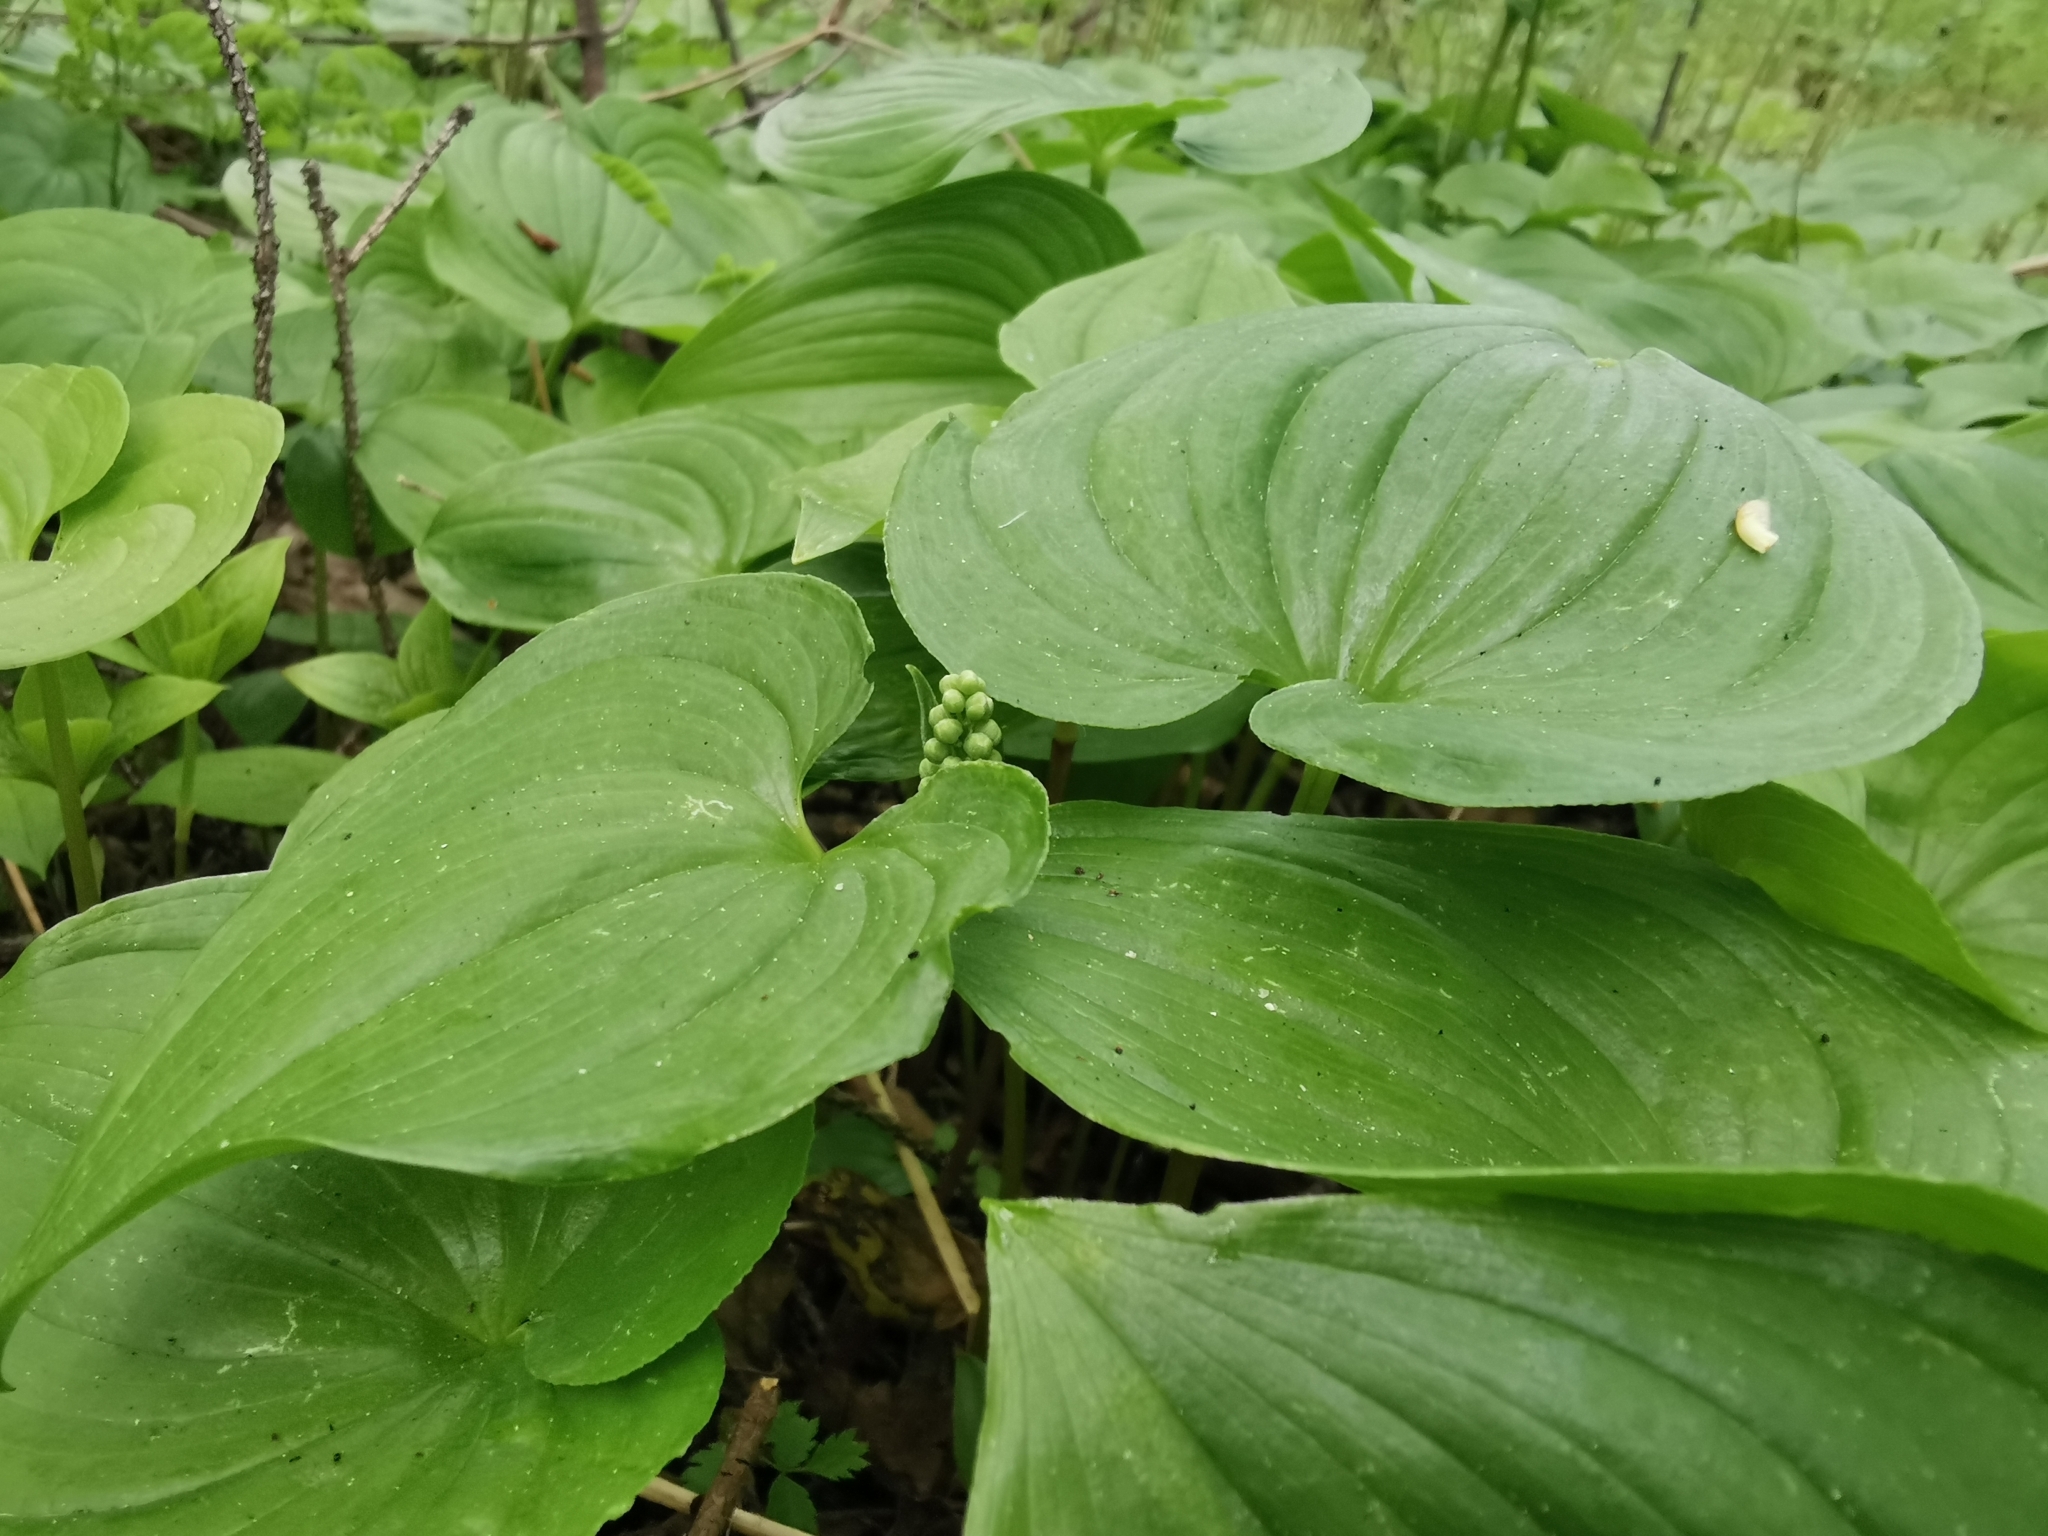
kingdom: Plantae
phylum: Tracheophyta
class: Liliopsida
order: Asparagales
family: Asparagaceae
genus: Maianthemum
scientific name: Maianthemum dilatatum
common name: False lily-of-the-valley
